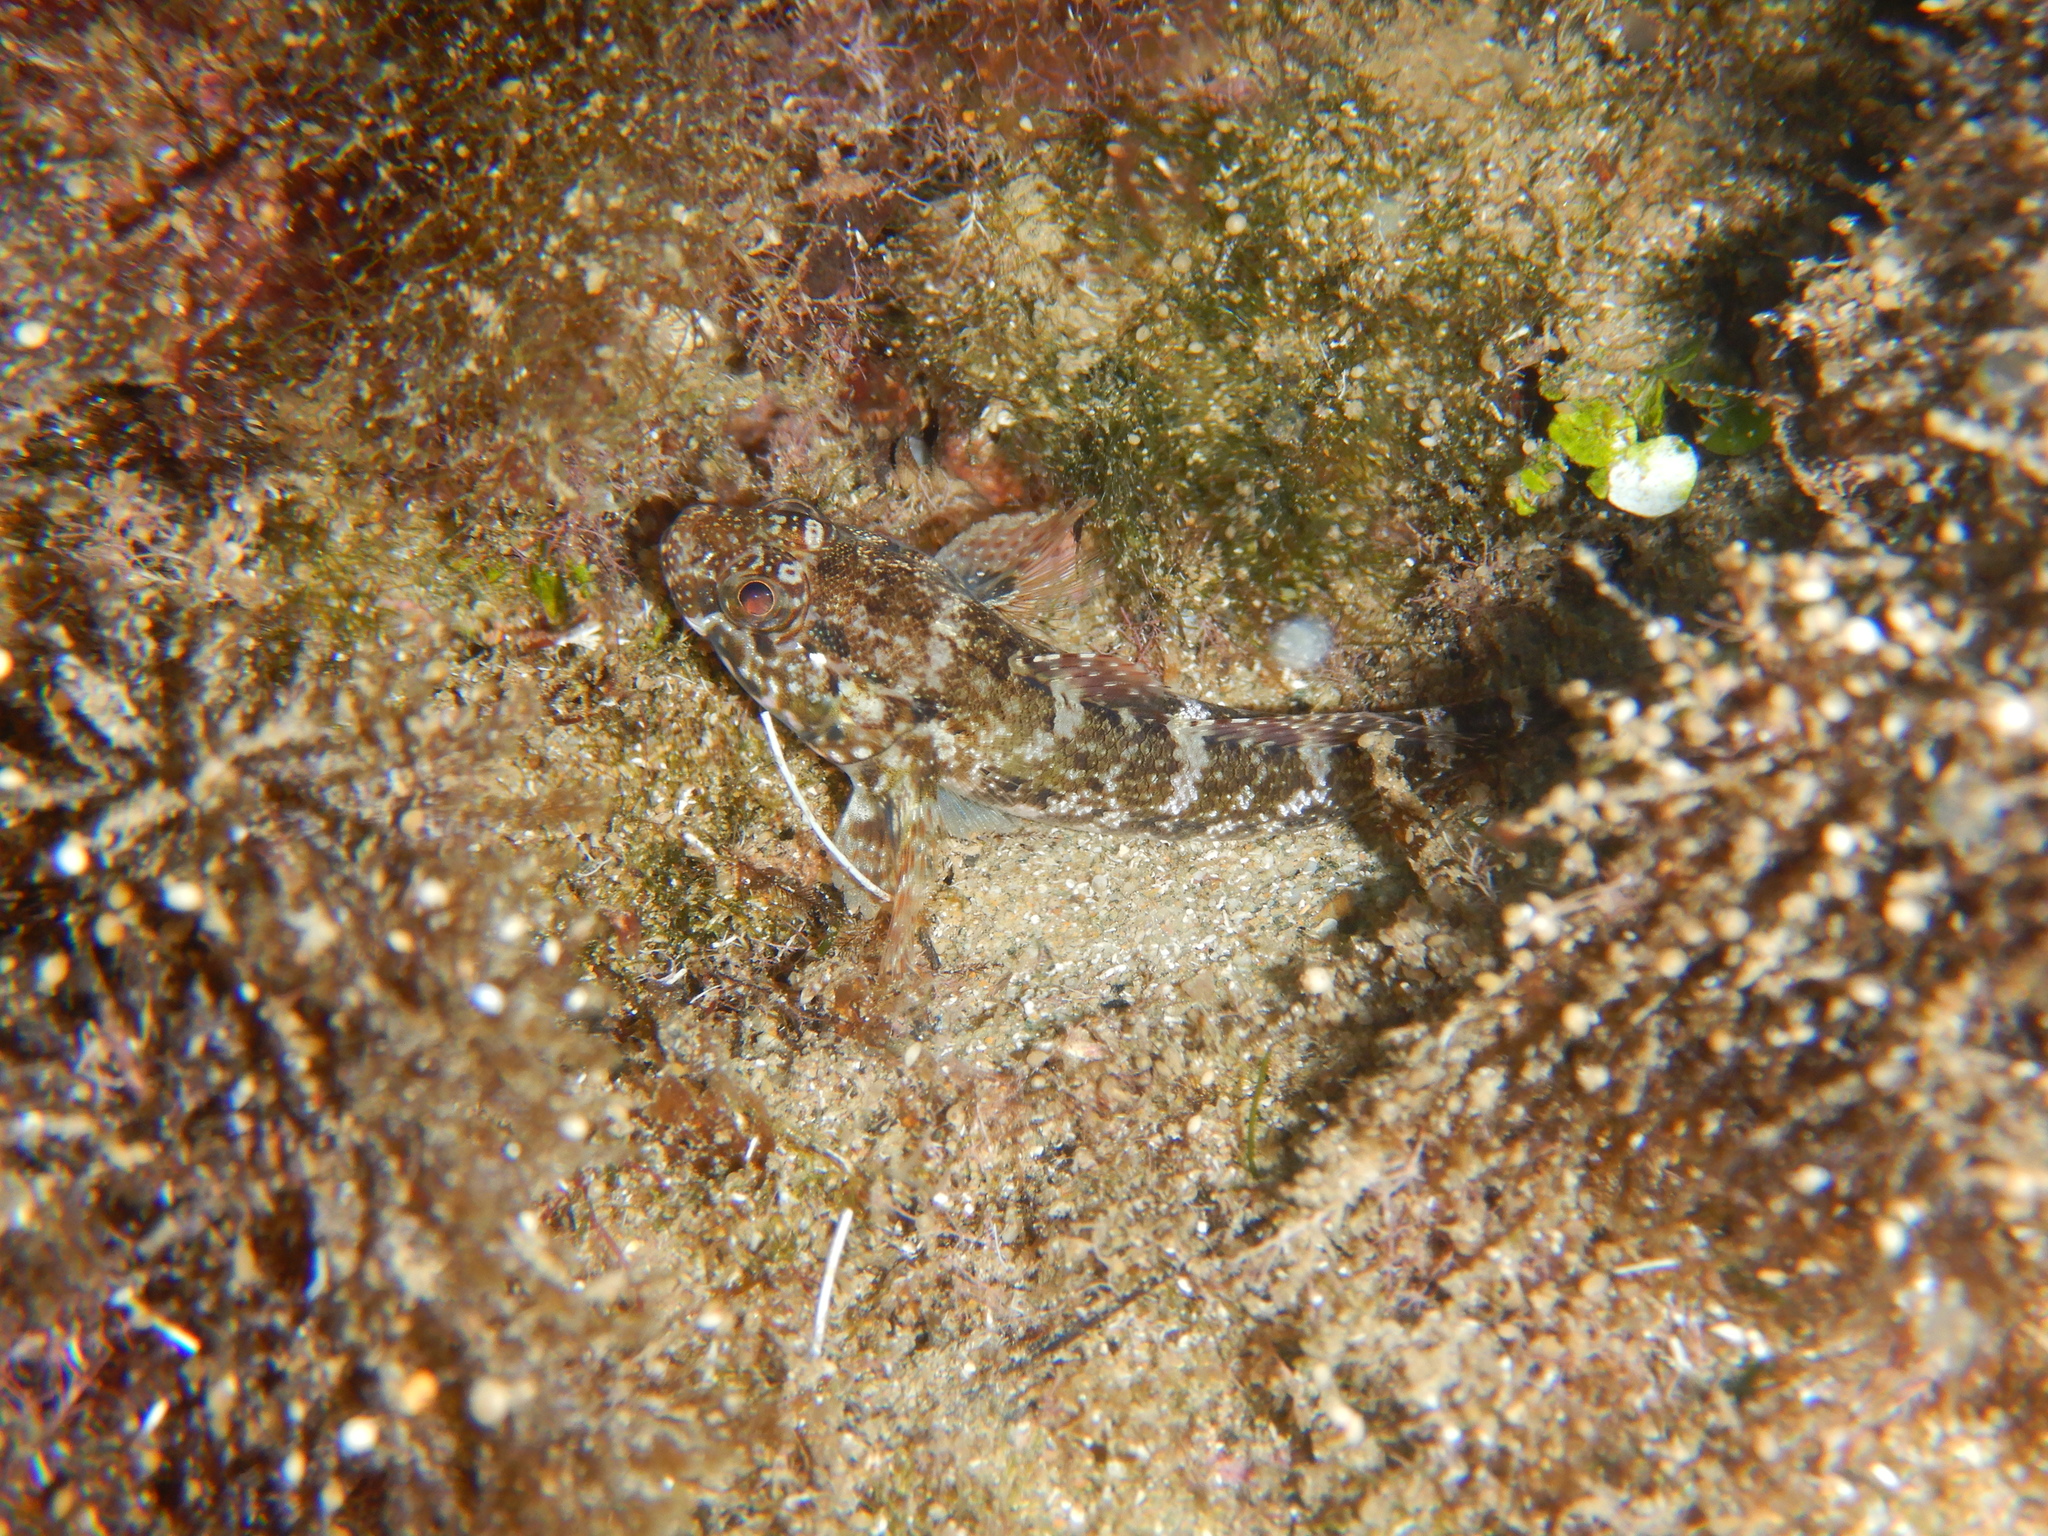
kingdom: Animalia
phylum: Chordata
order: Perciformes
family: Gobiidae
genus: Gobius
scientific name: Gobius paganellus
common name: Rock goby
